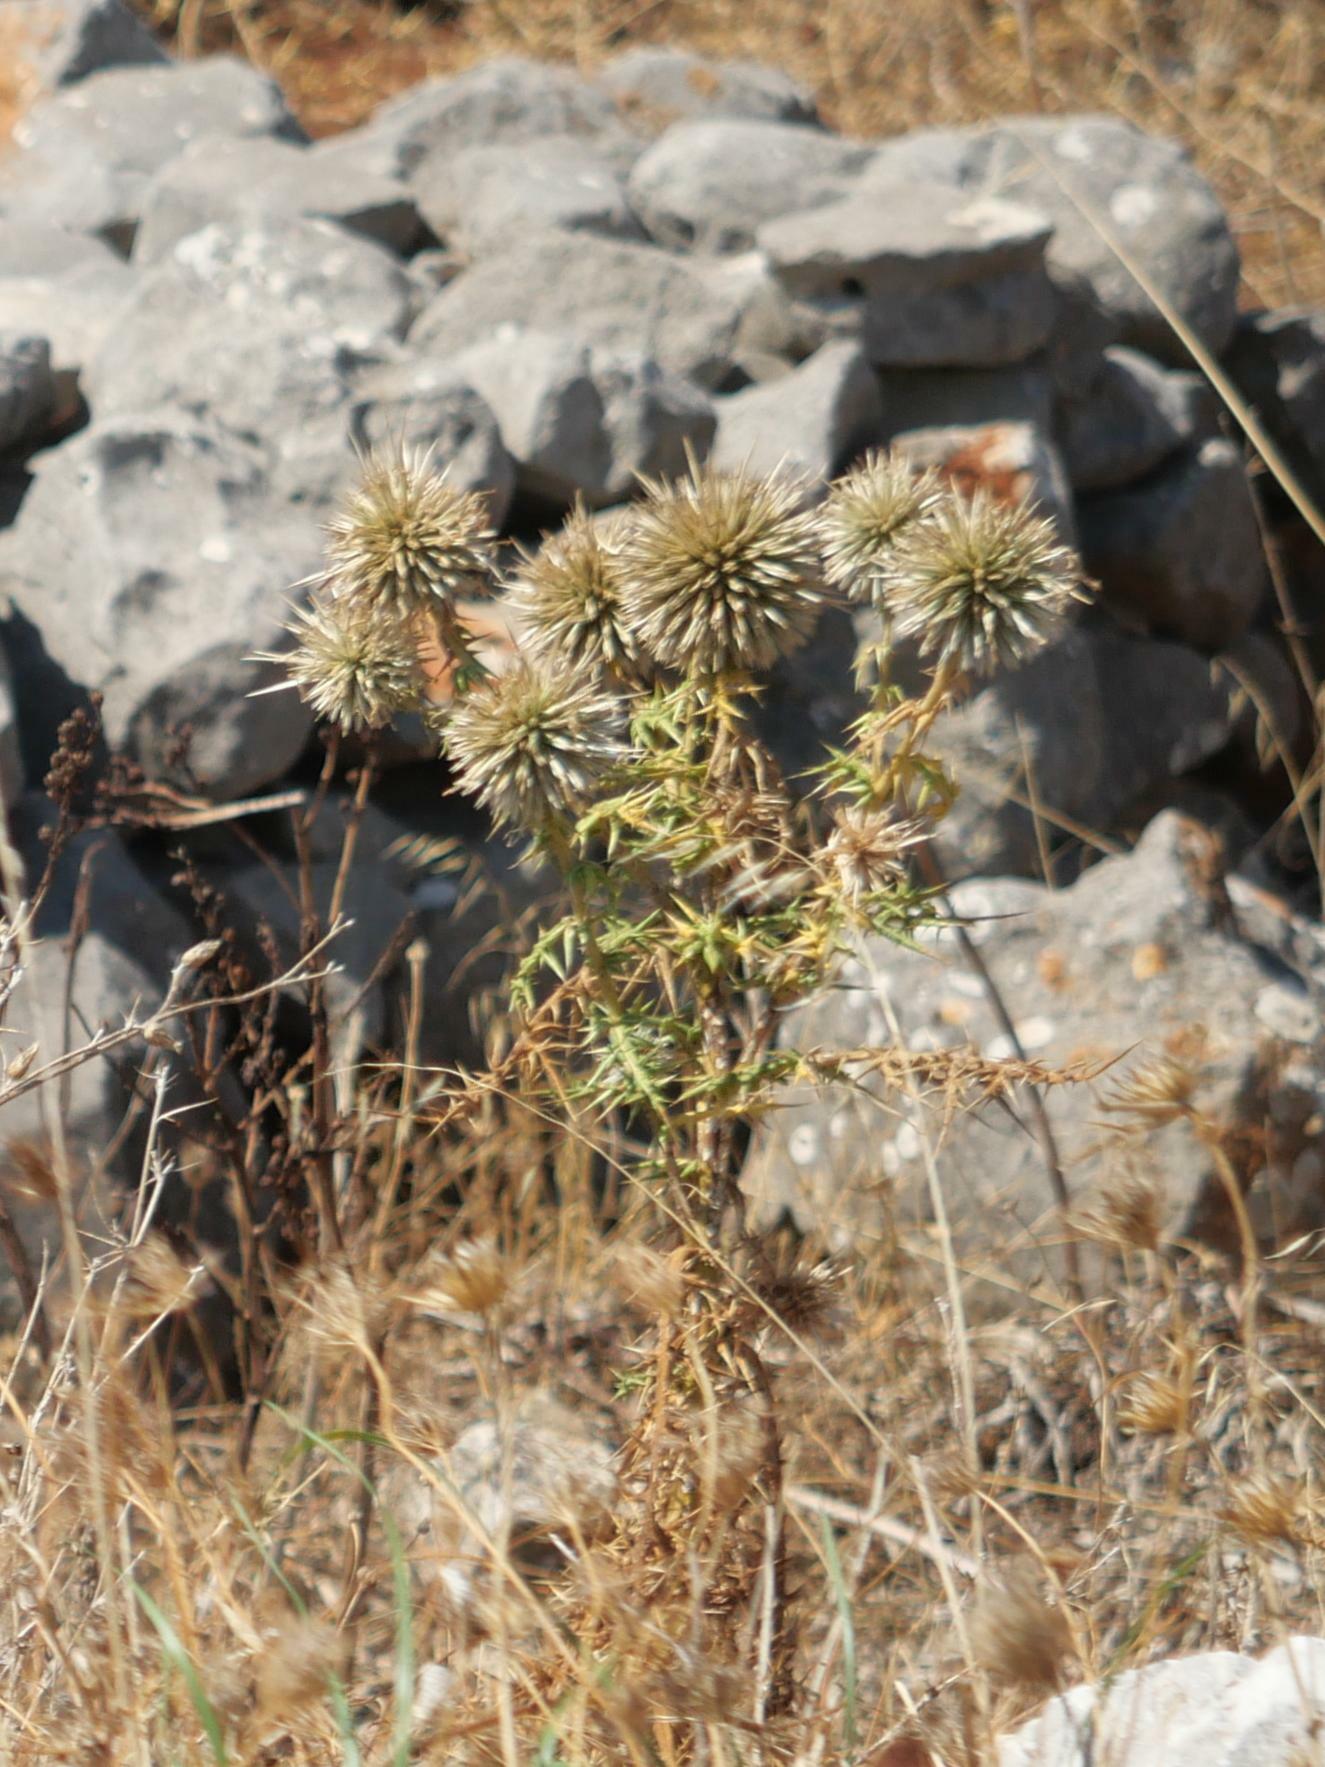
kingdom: Plantae
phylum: Tracheophyta
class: Magnoliopsida
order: Asterales
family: Asteraceae
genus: Echinops
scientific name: Echinops spinosissimus
